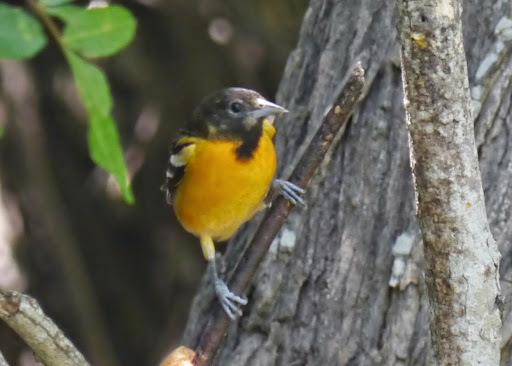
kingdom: Animalia
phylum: Chordata
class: Aves
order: Passeriformes
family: Icteridae
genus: Icterus
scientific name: Icterus galbula
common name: Baltimore oriole
